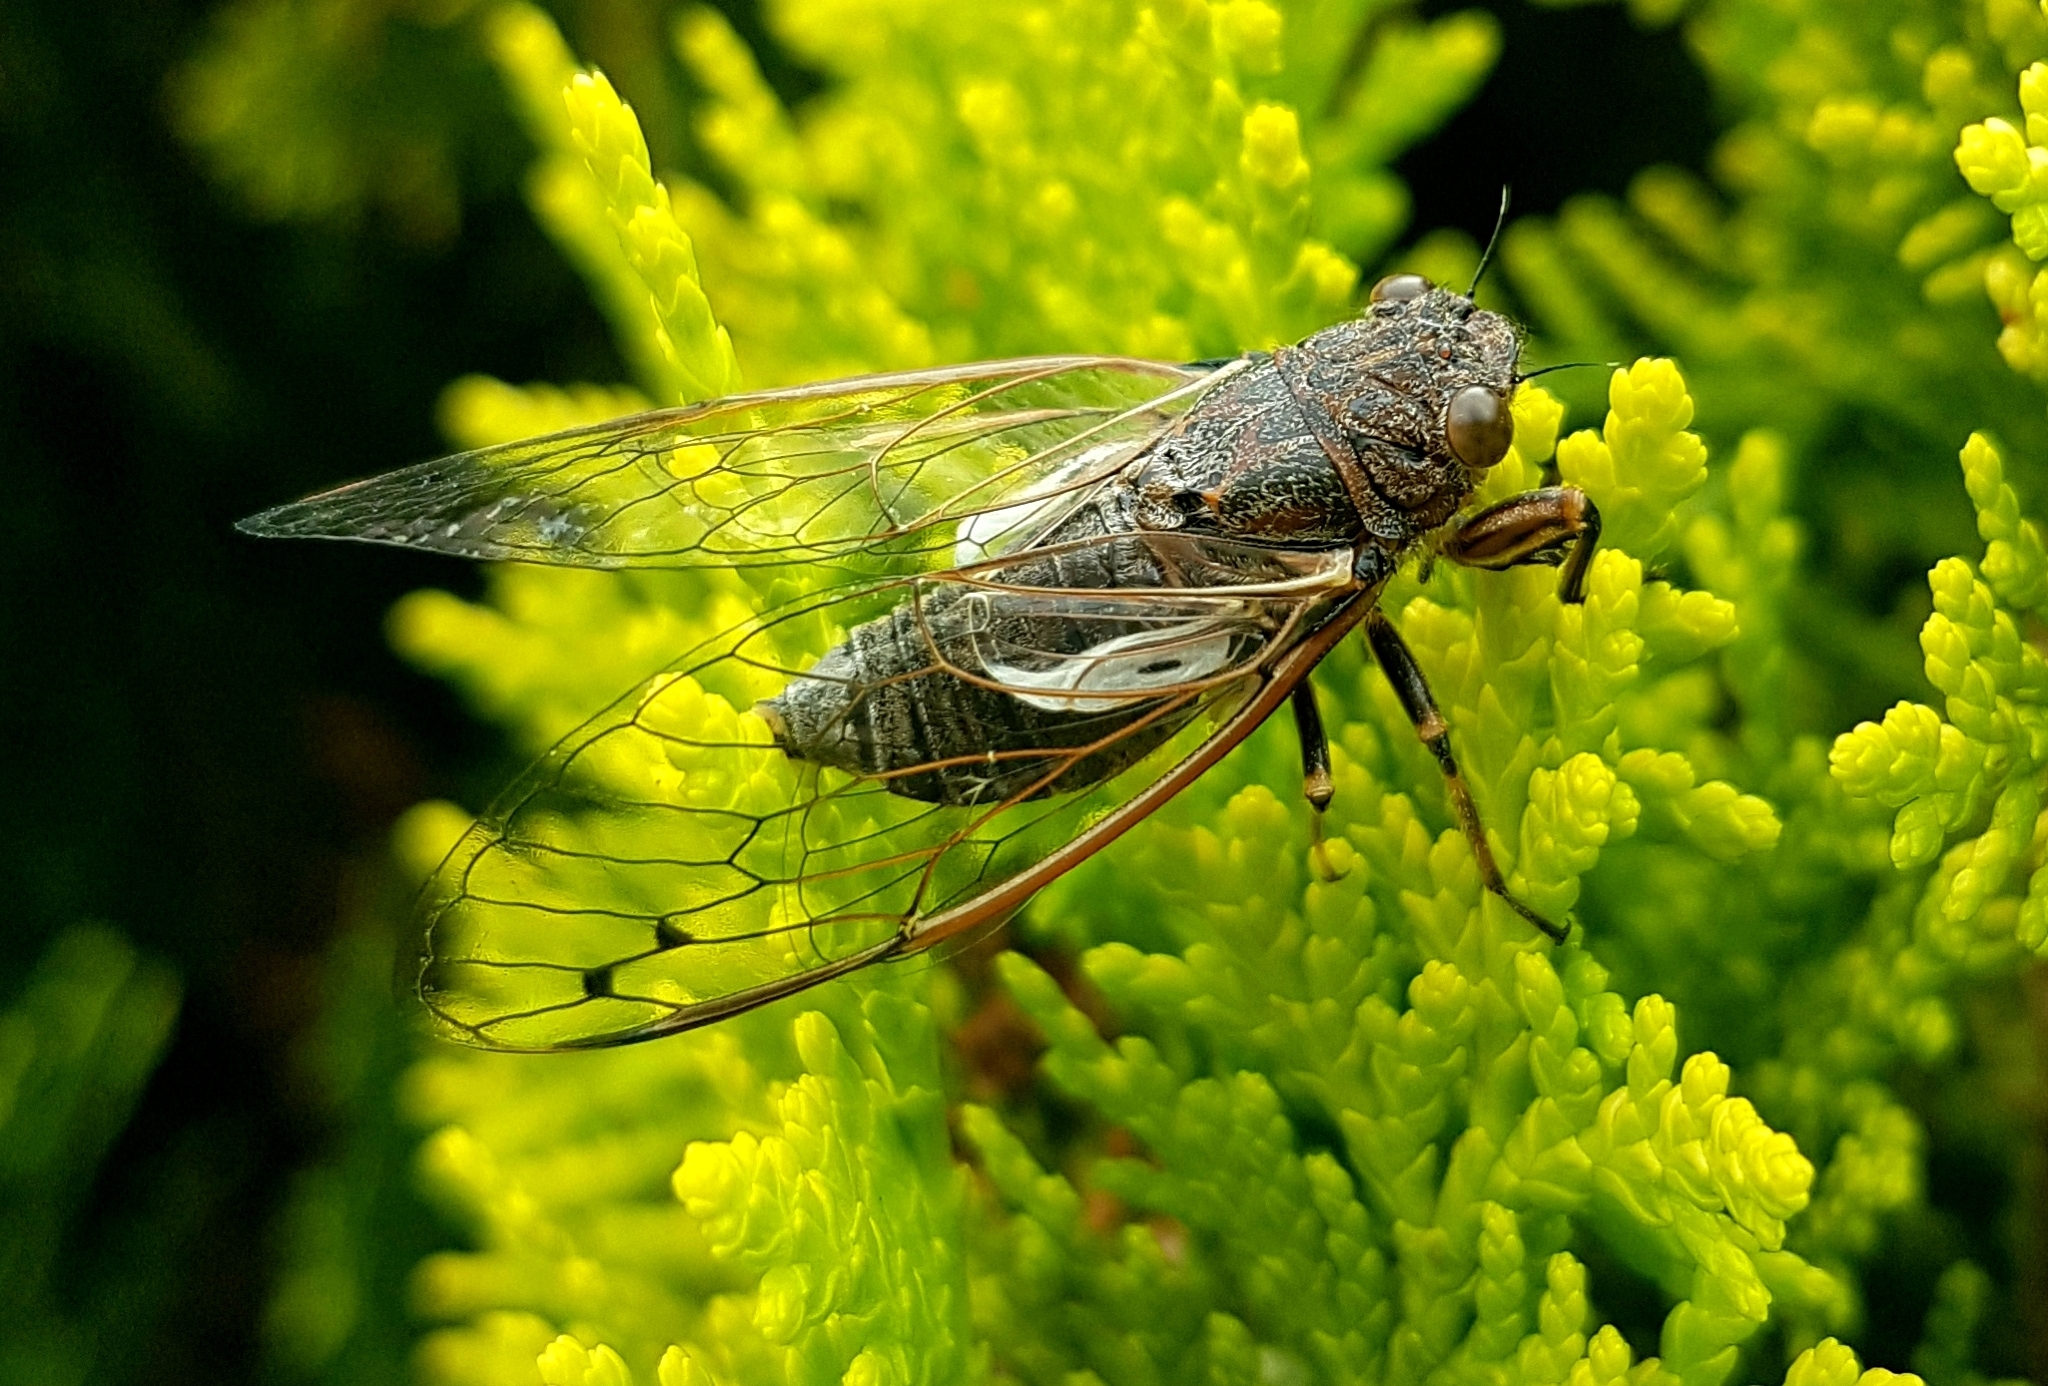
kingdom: Animalia
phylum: Arthropoda
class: Insecta
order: Hemiptera
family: Cicadidae
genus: Gelidea
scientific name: Gelidea torrida
